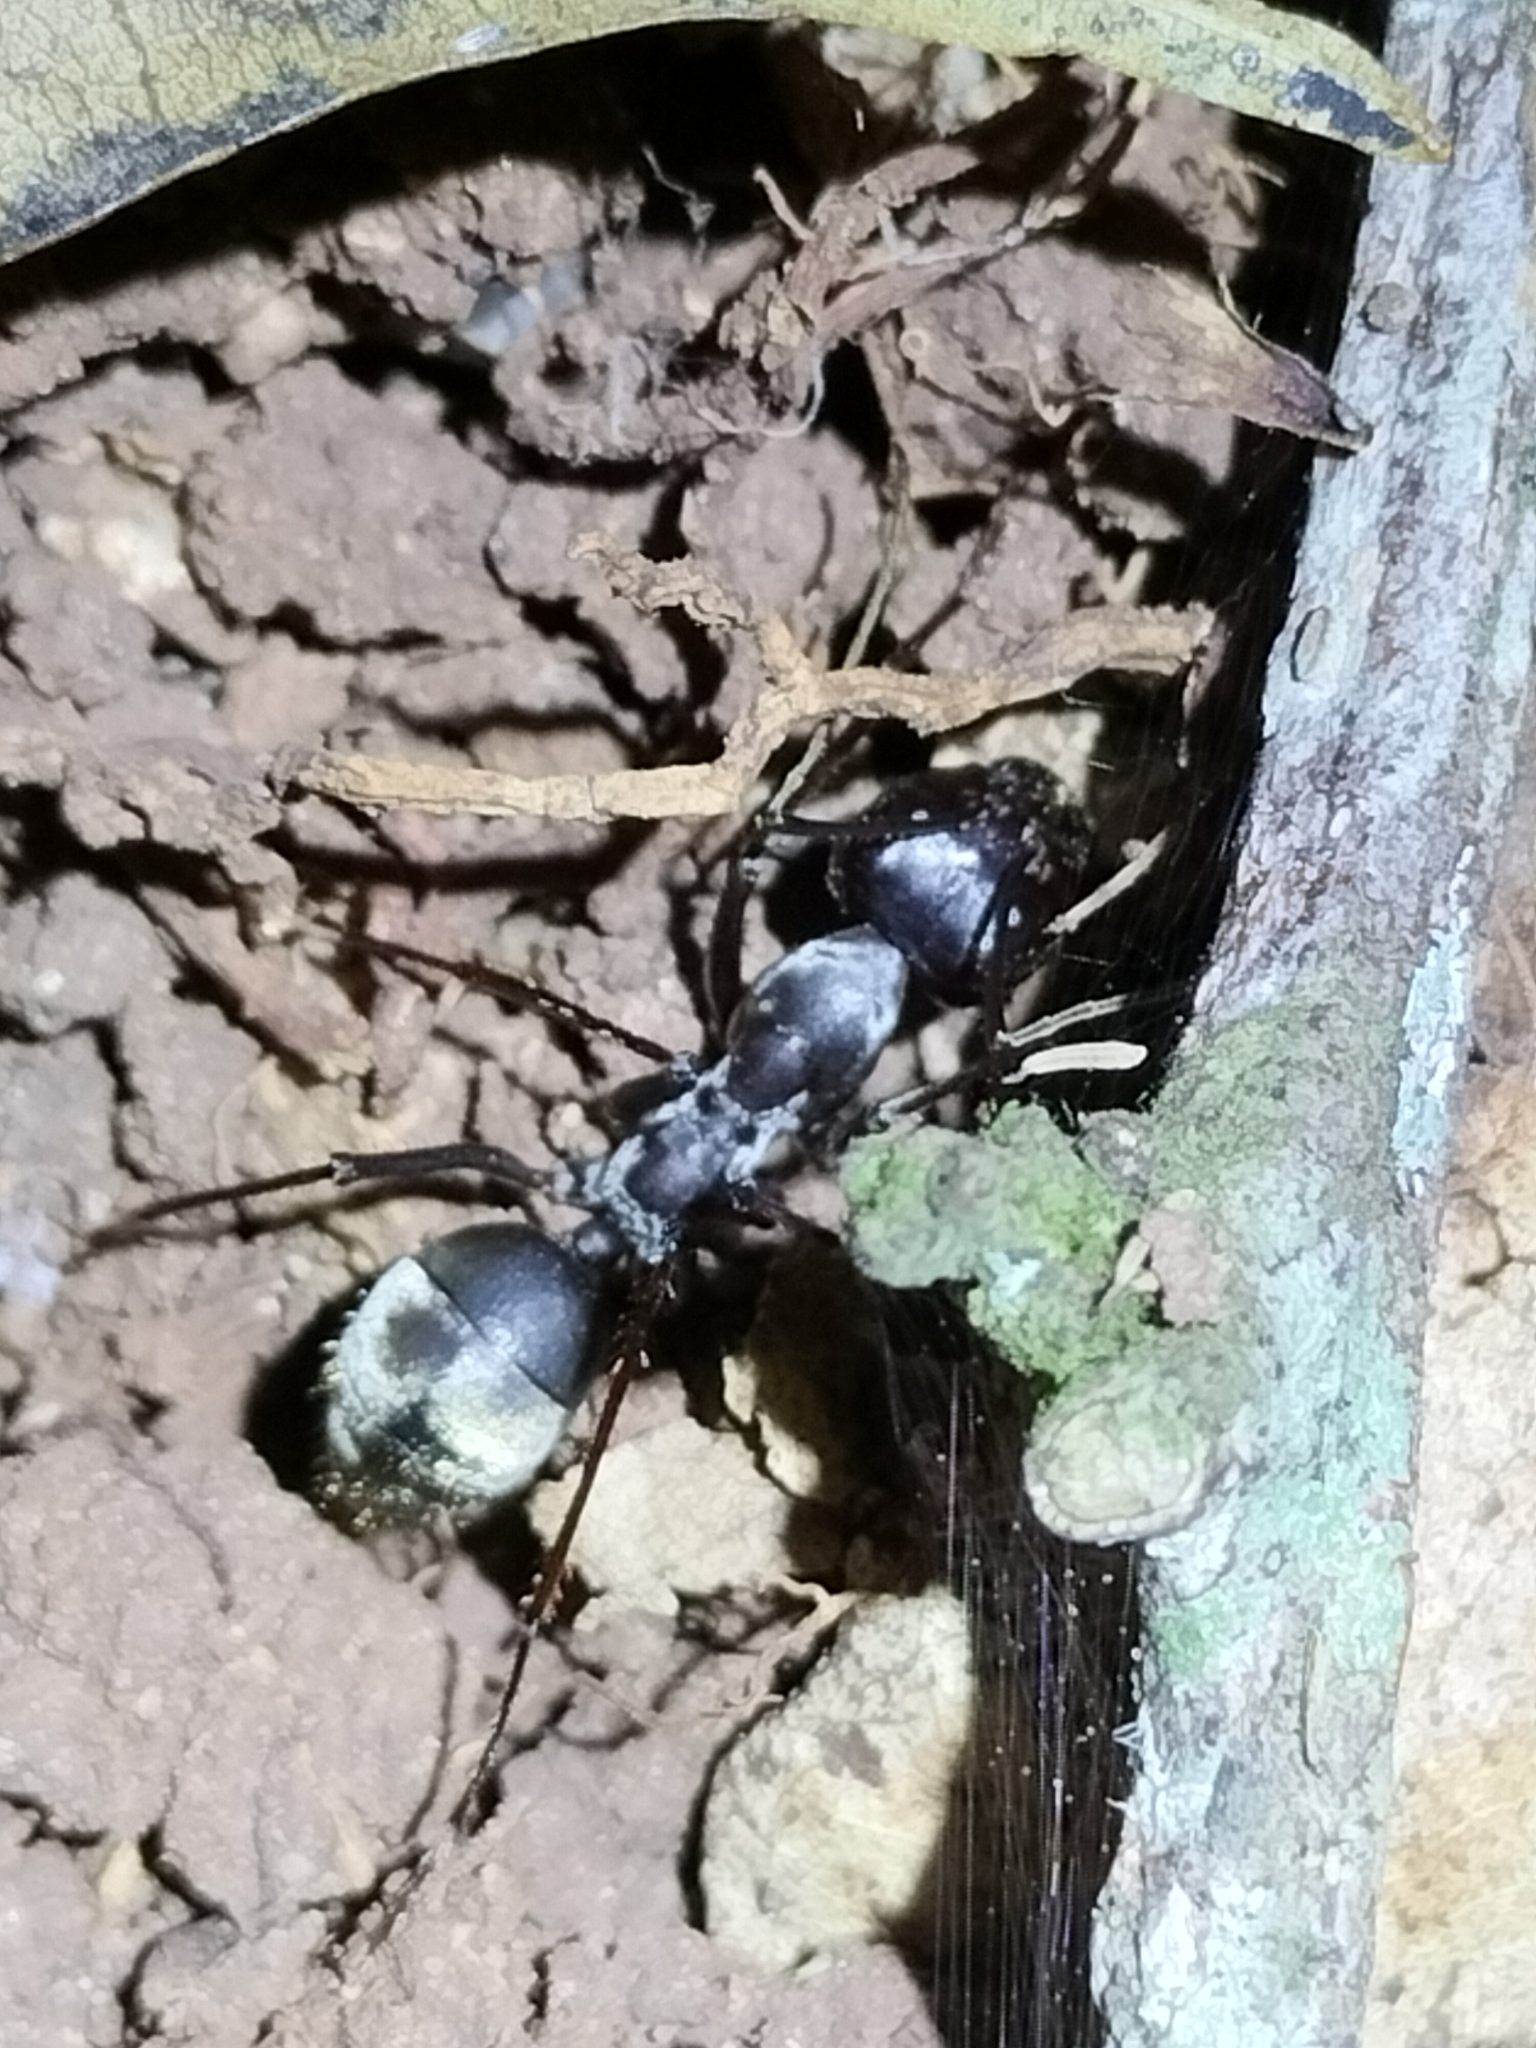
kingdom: Animalia
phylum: Arthropoda
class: Insecta
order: Hymenoptera
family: Formicidae
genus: Notostigma
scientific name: Notostigma carazzii
